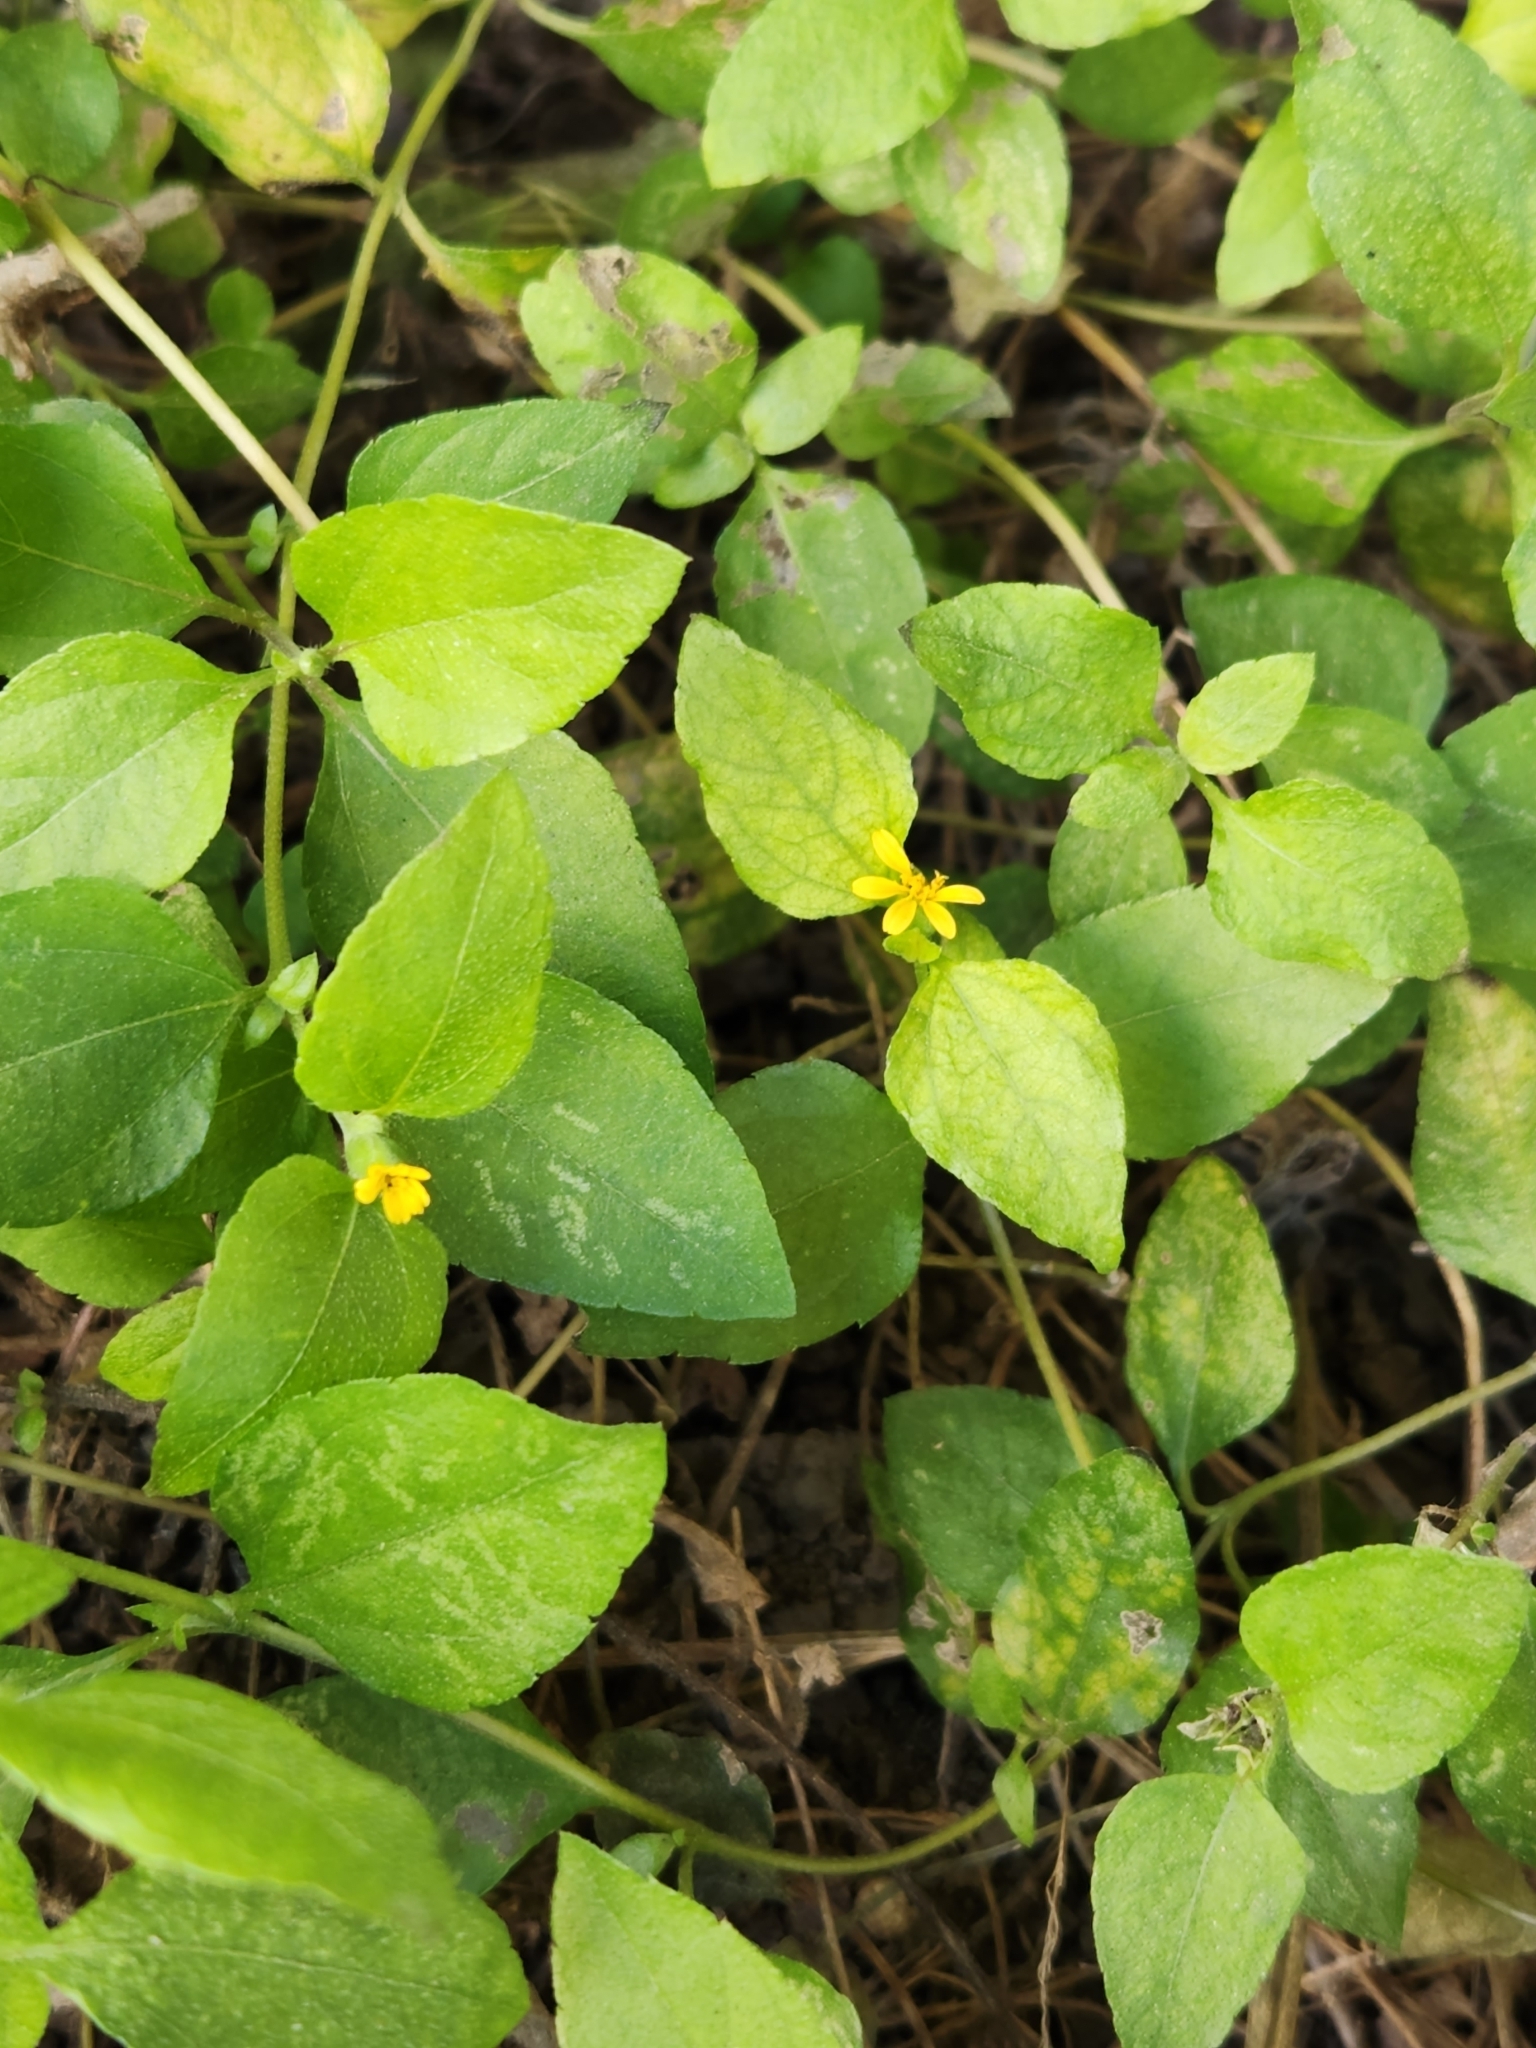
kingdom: Plantae
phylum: Tracheophyta
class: Magnoliopsida
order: Asterales
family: Asteraceae
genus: Calyptocarpus
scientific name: Calyptocarpus vialis
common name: Straggler daisy
